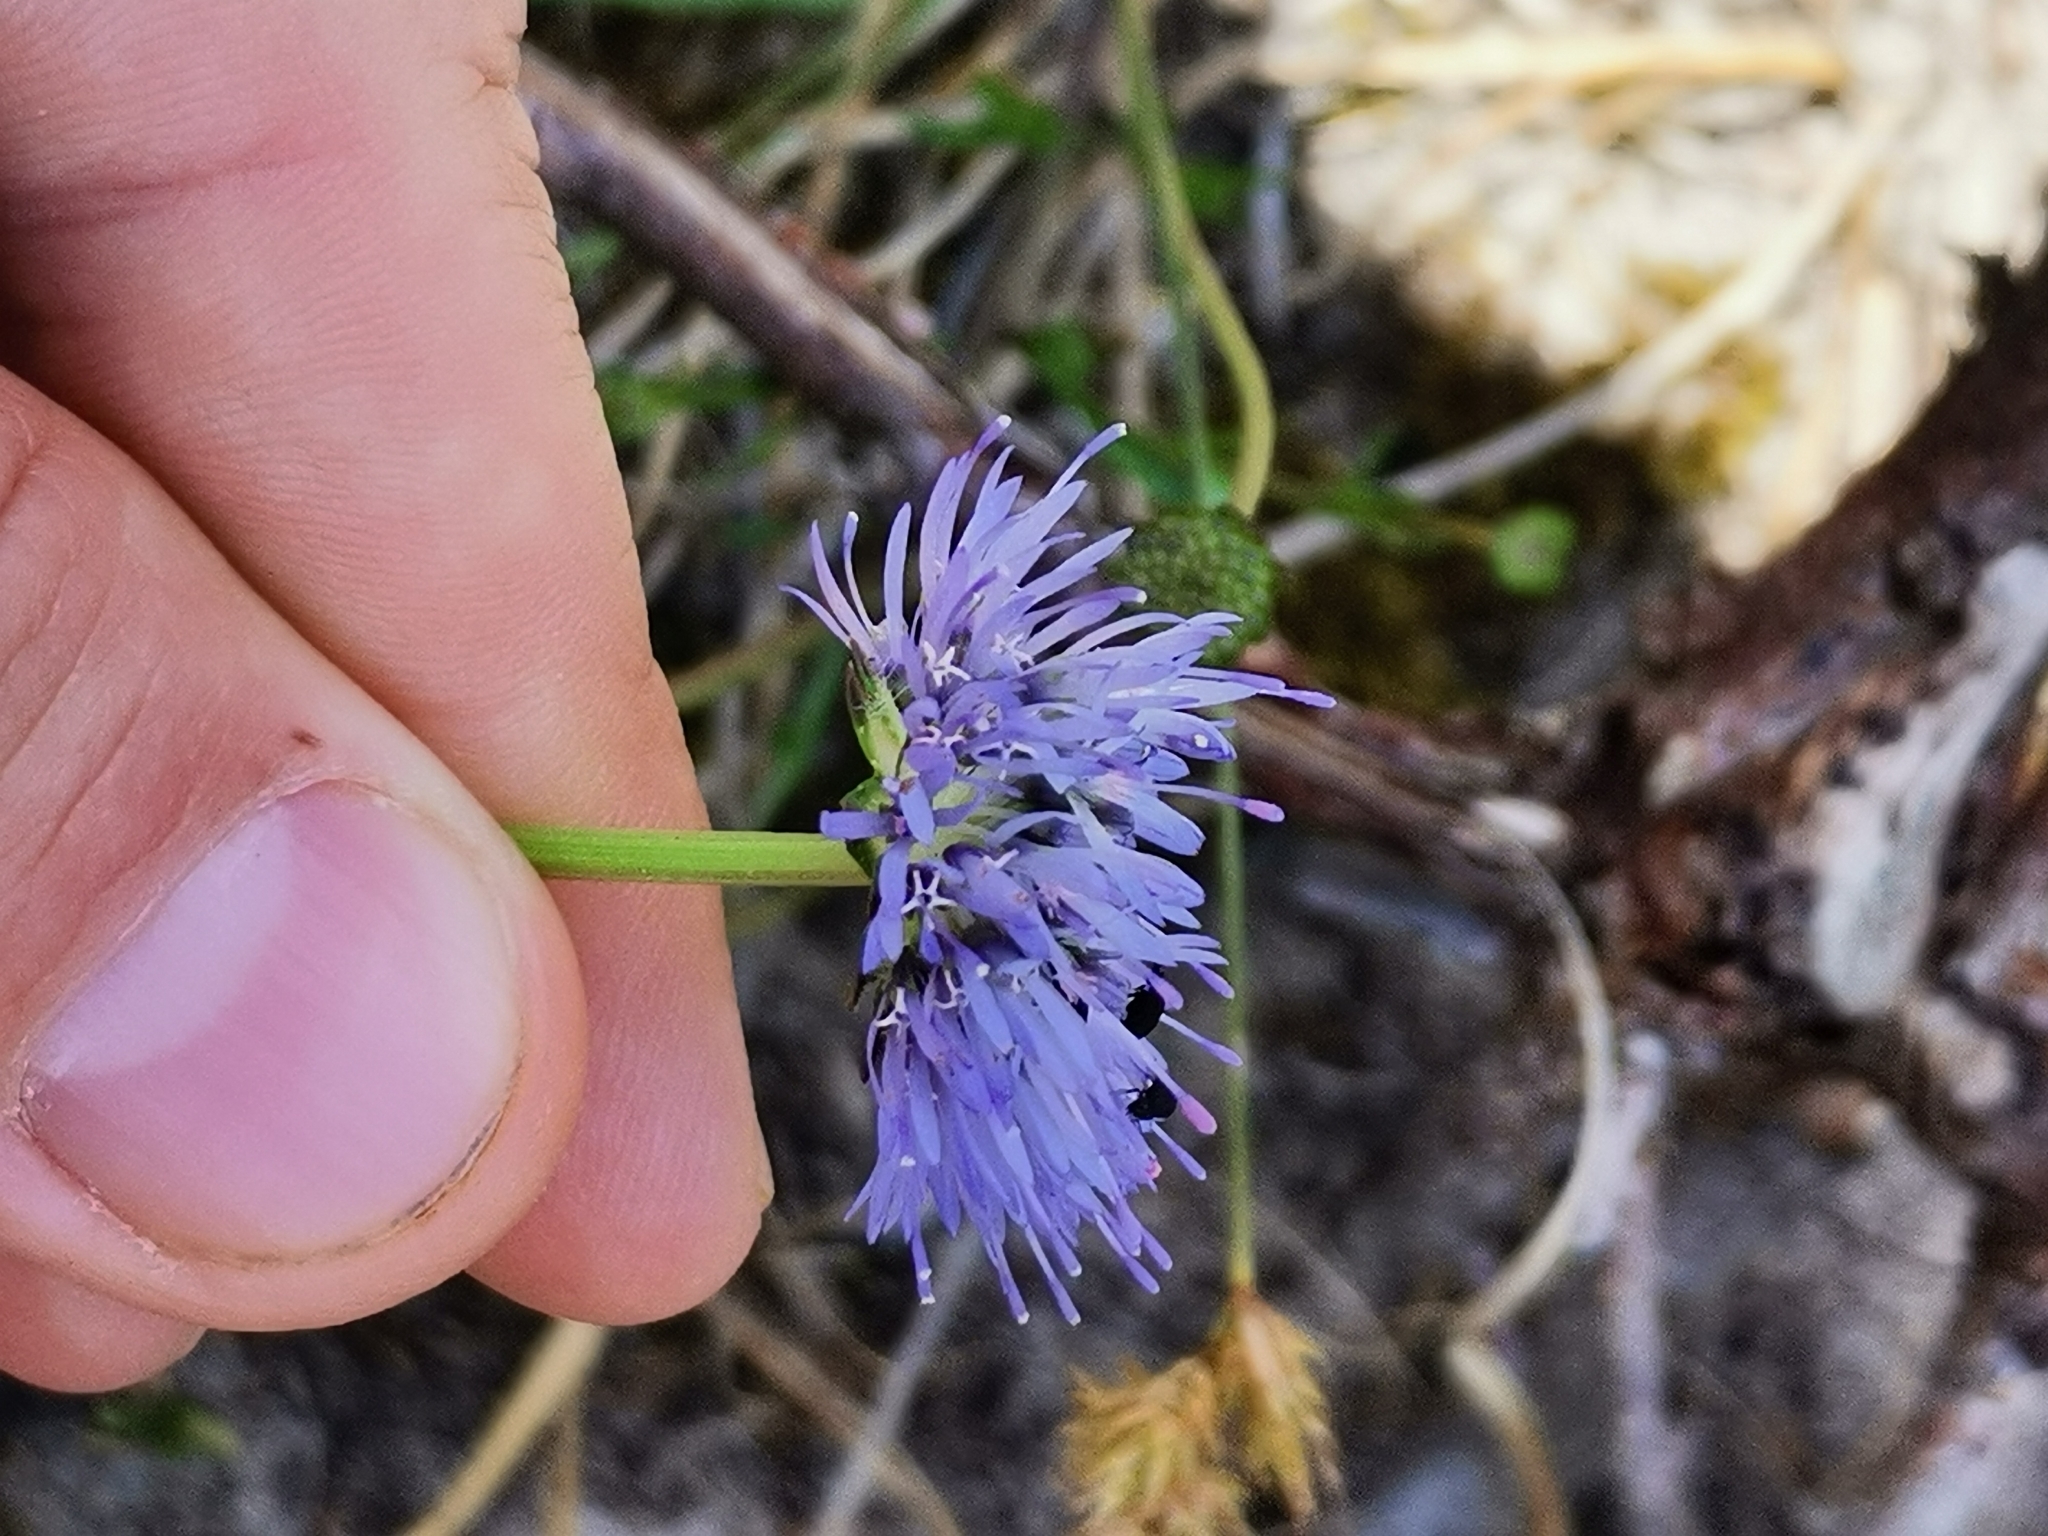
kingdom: Plantae
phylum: Tracheophyta
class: Magnoliopsida
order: Asterales
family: Campanulaceae
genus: Jasione
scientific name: Jasione montana
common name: Sheep's-bit
